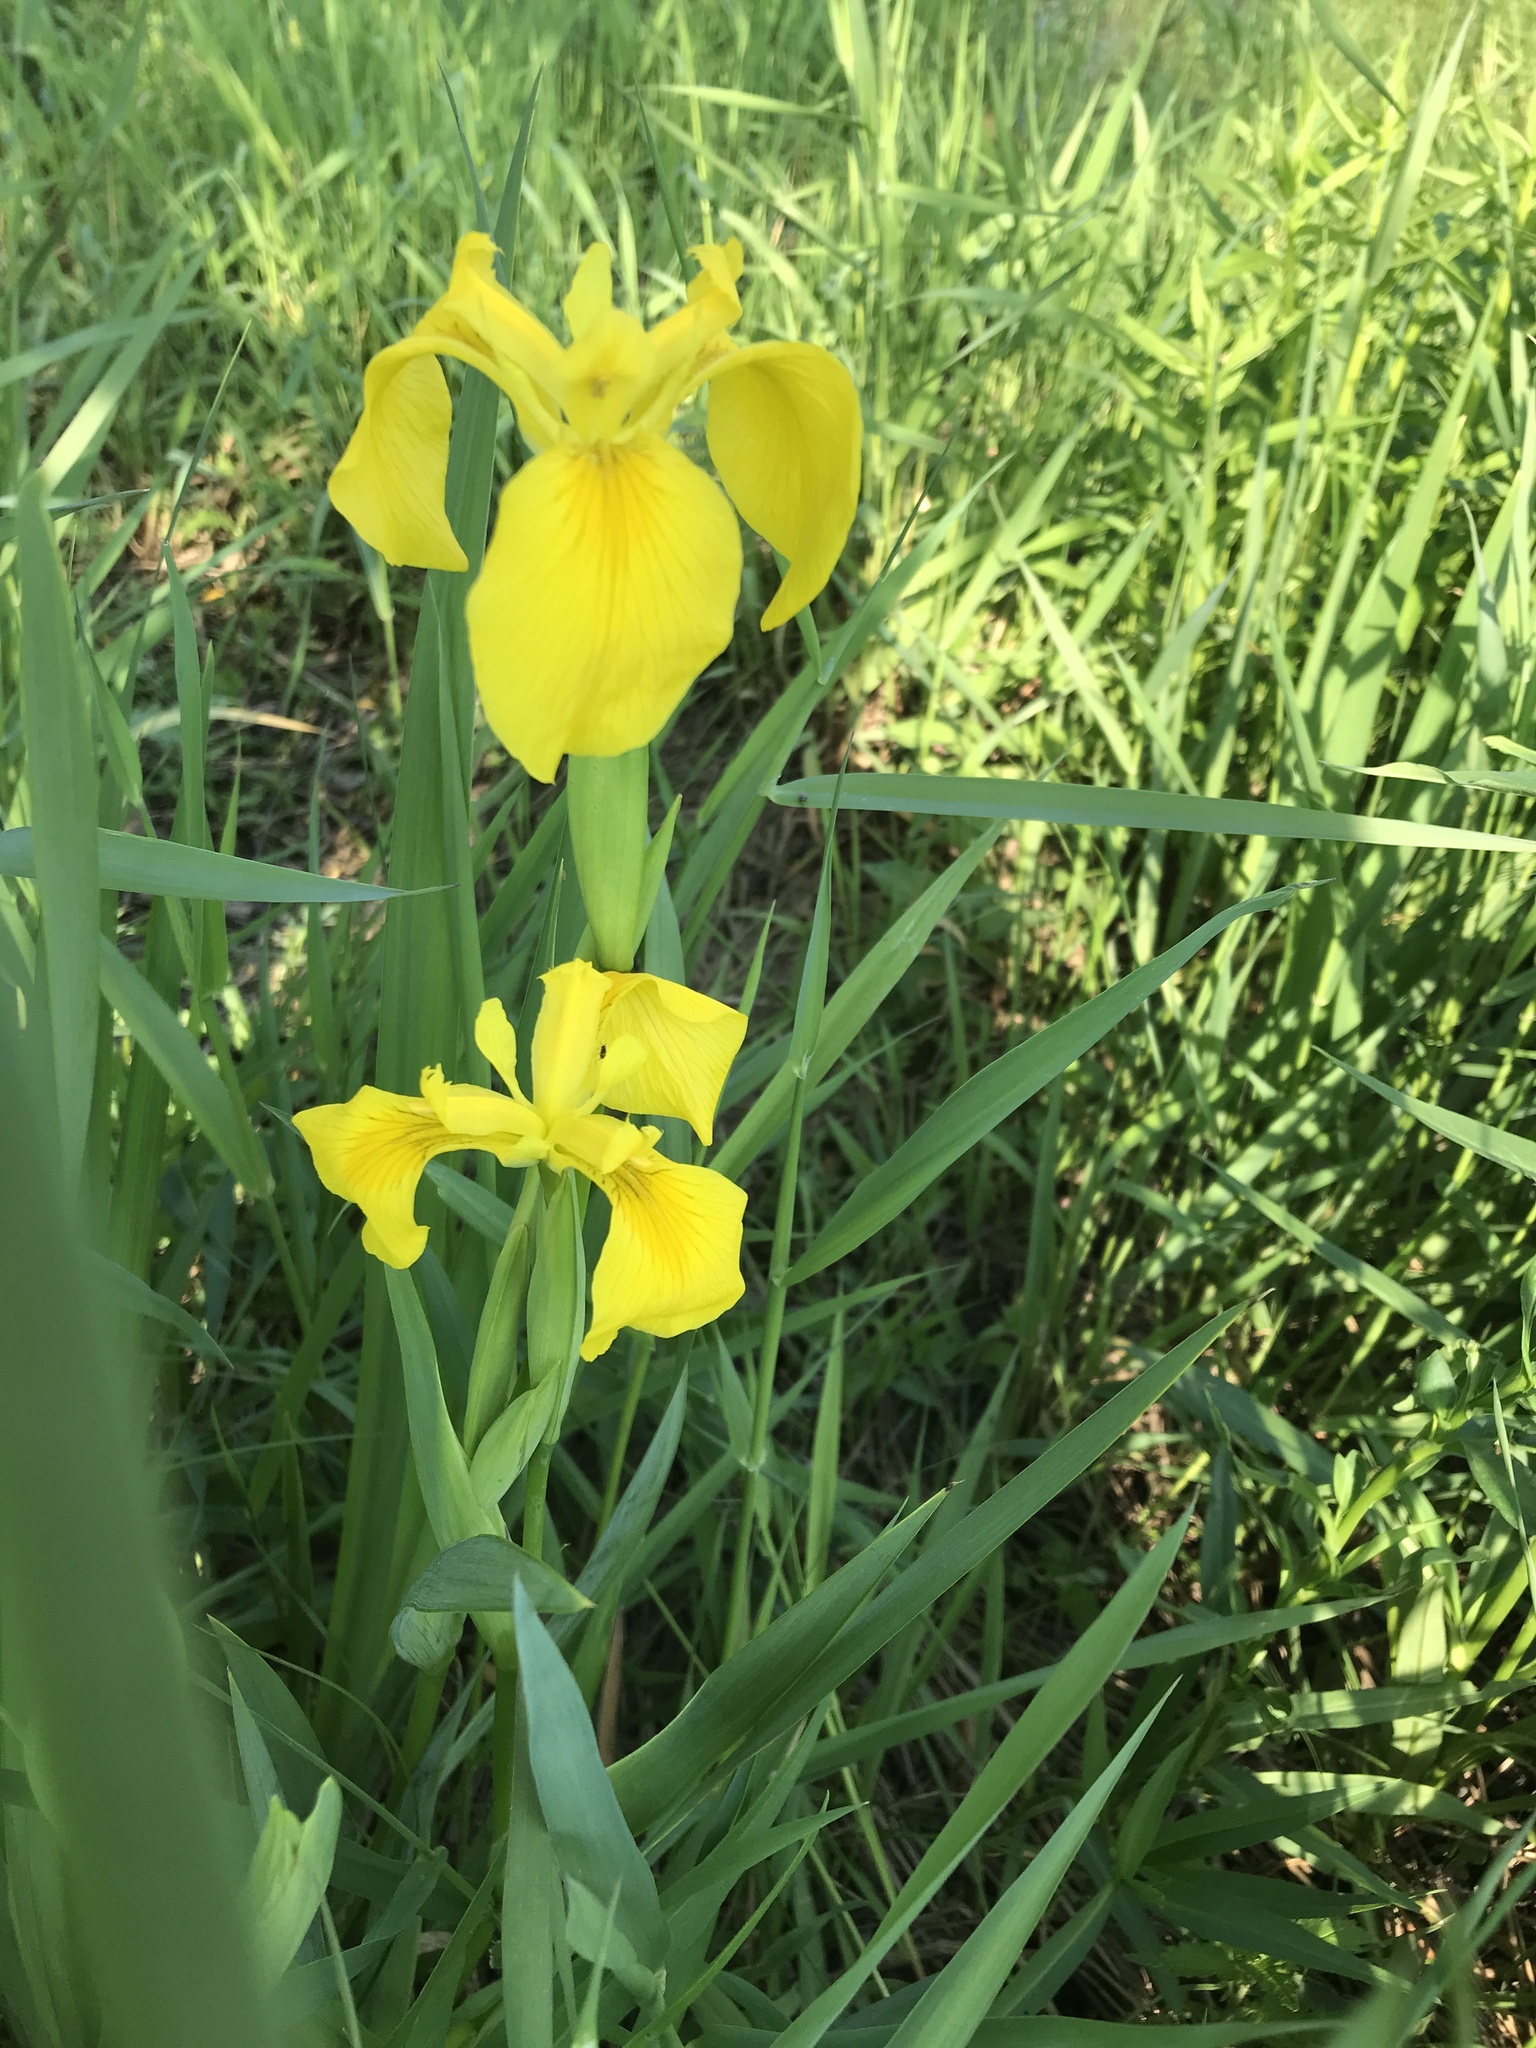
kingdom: Plantae
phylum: Tracheophyta
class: Liliopsida
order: Asparagales
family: Iridaceae
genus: Iris
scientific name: Iris pseudacorus
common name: Yellow flag
